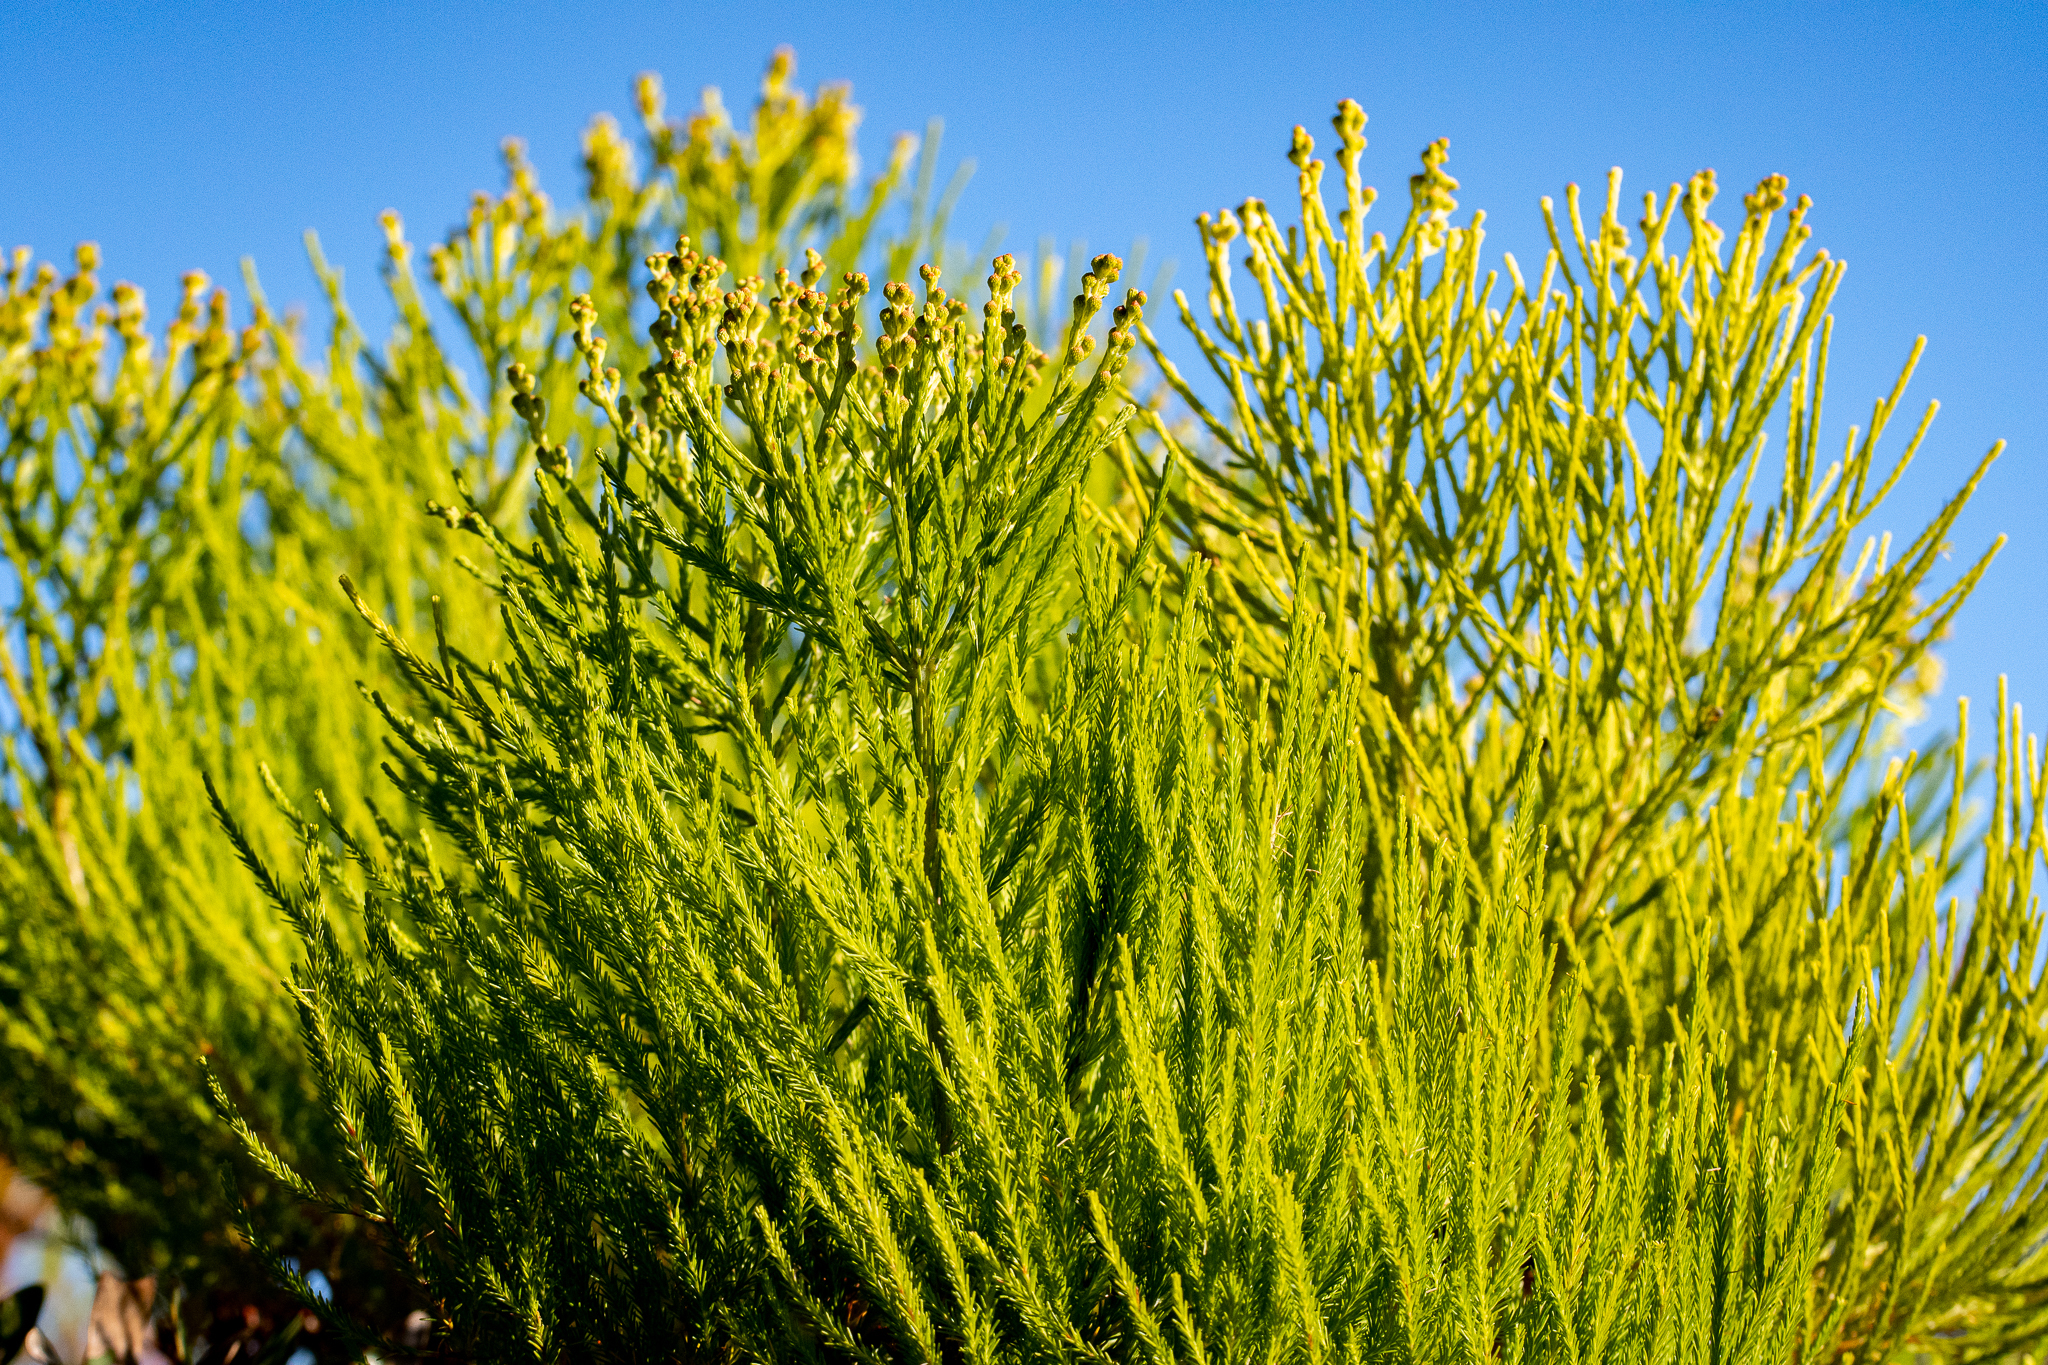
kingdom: Plantae
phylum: Tracheophyta
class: Magnoliopsida
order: Bruniales
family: Bruniaceae
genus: Berzelia
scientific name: Berzelia lanuginosa
